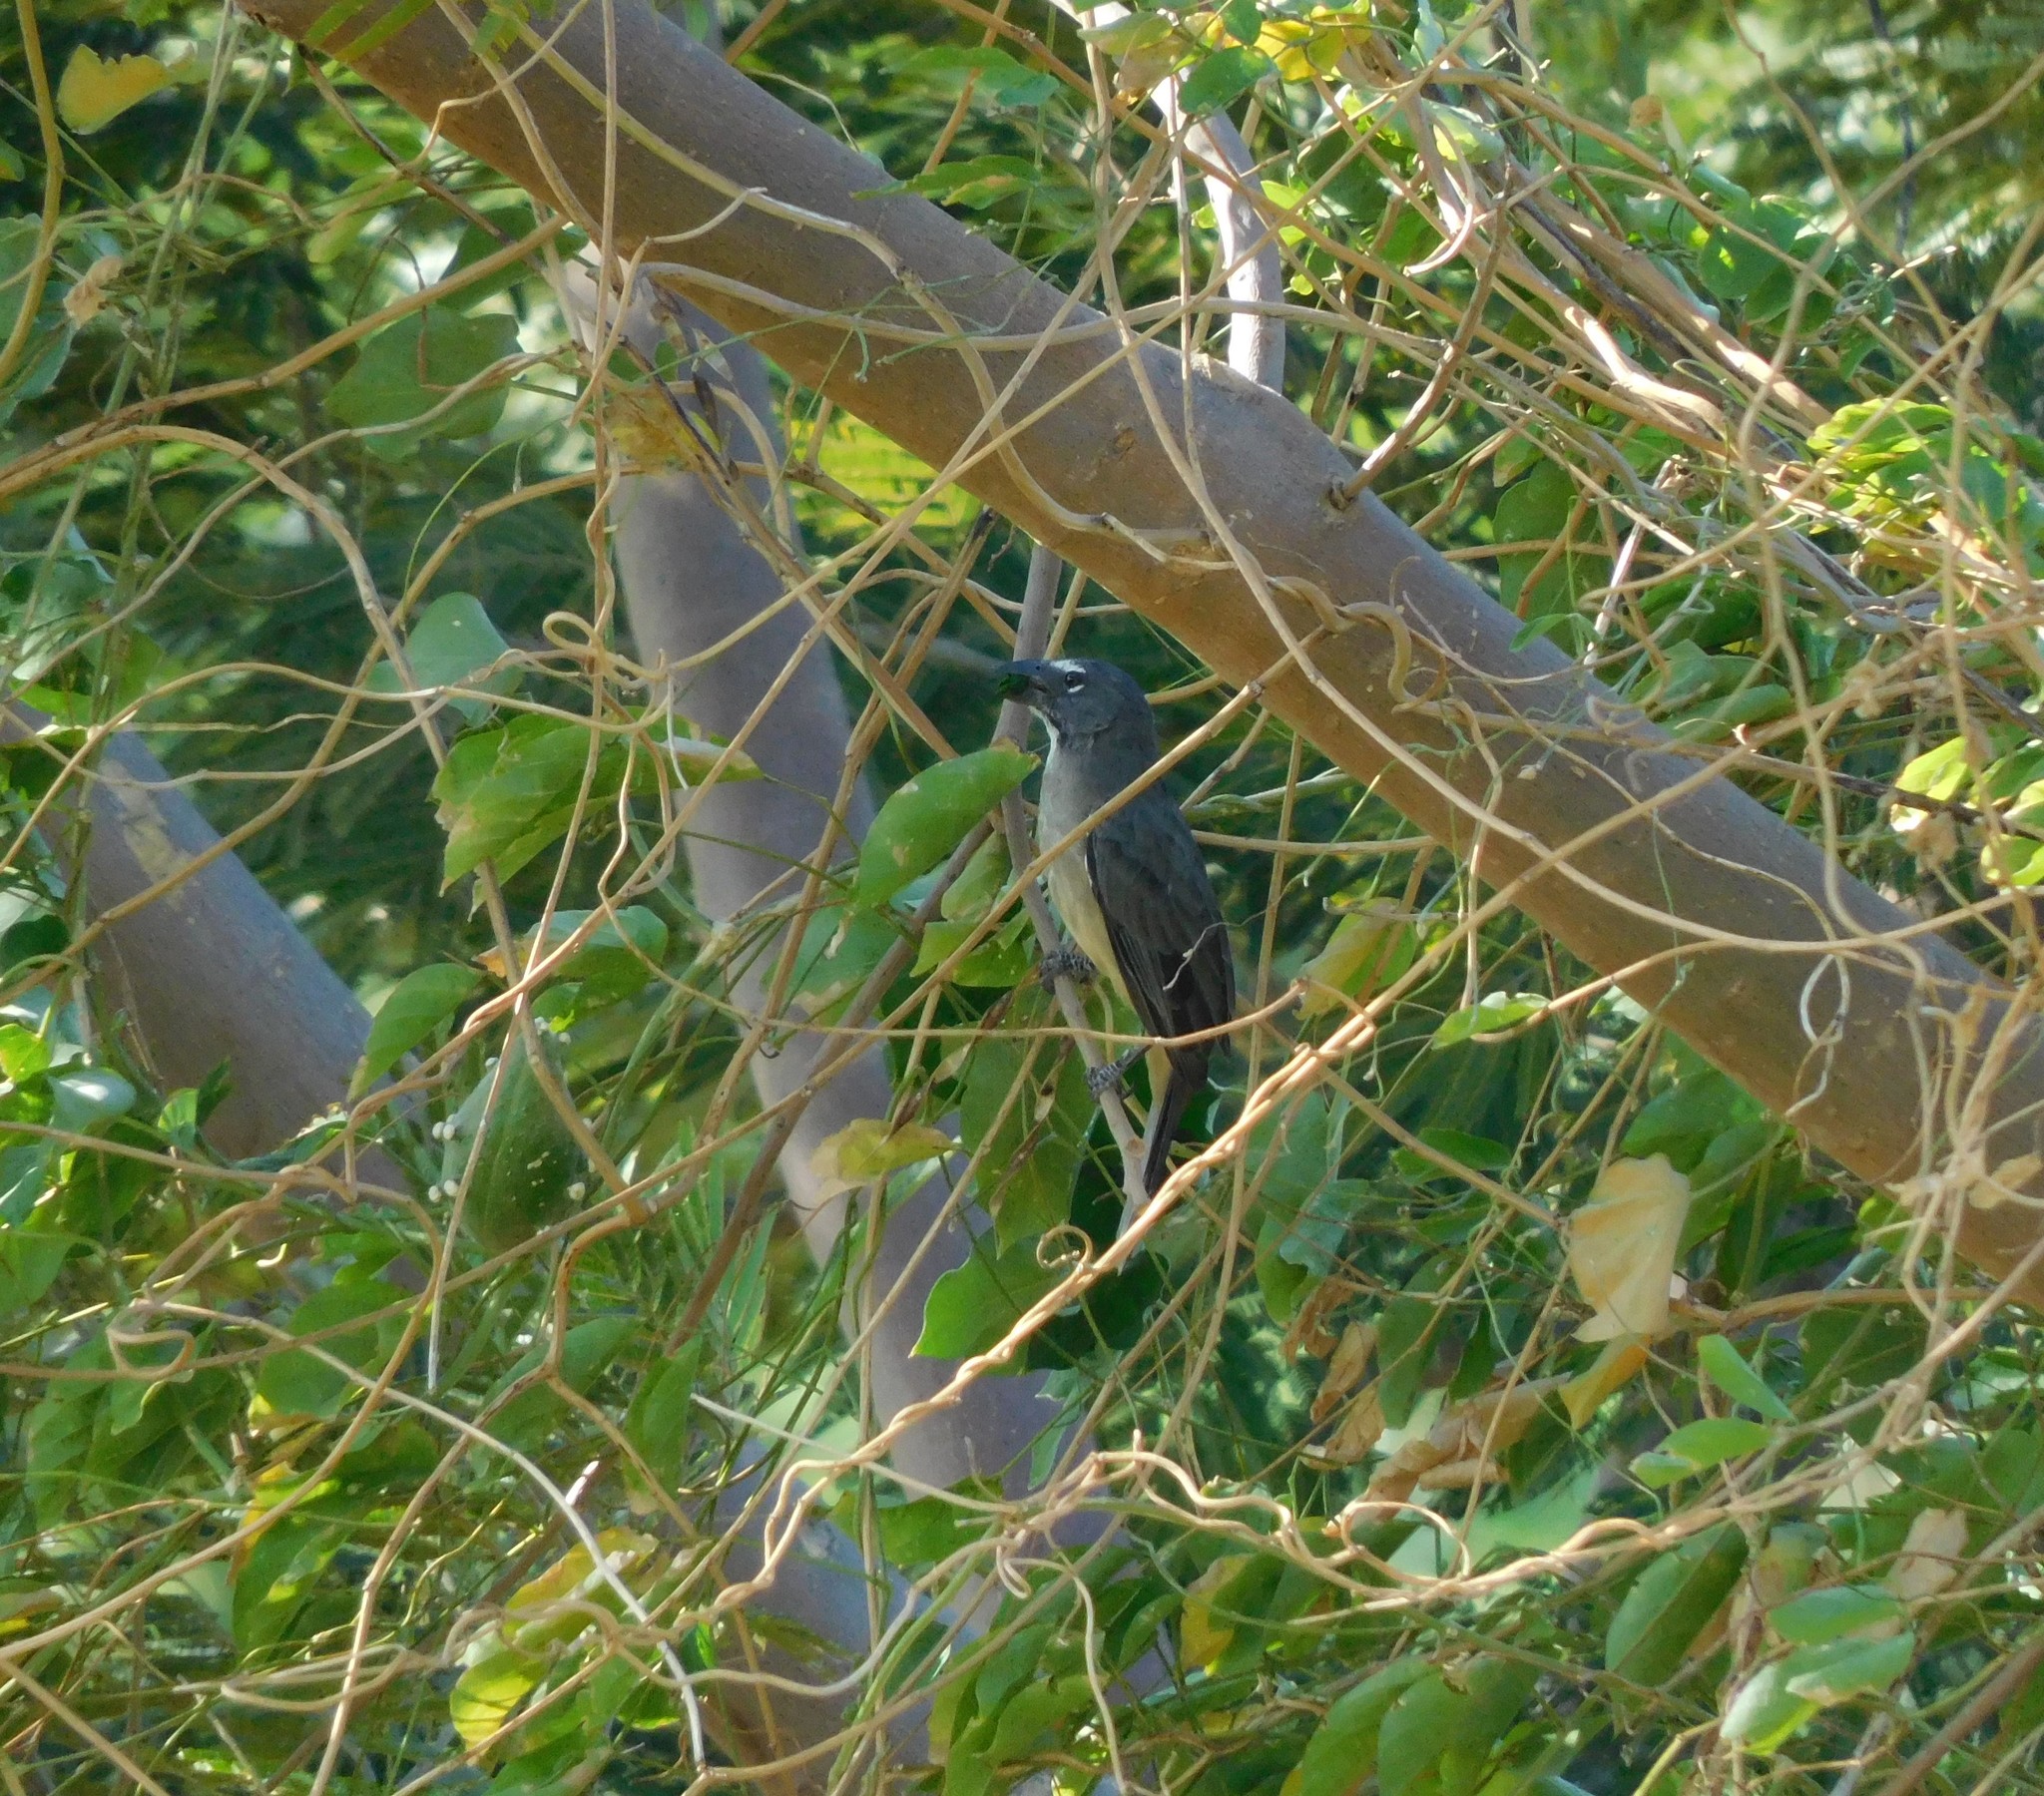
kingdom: Animalia
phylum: Chordata
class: Aves
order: Passeriformes
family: Thraupidae
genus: Saltator
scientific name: Saltator olivascens
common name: Caribbean grey saltator
